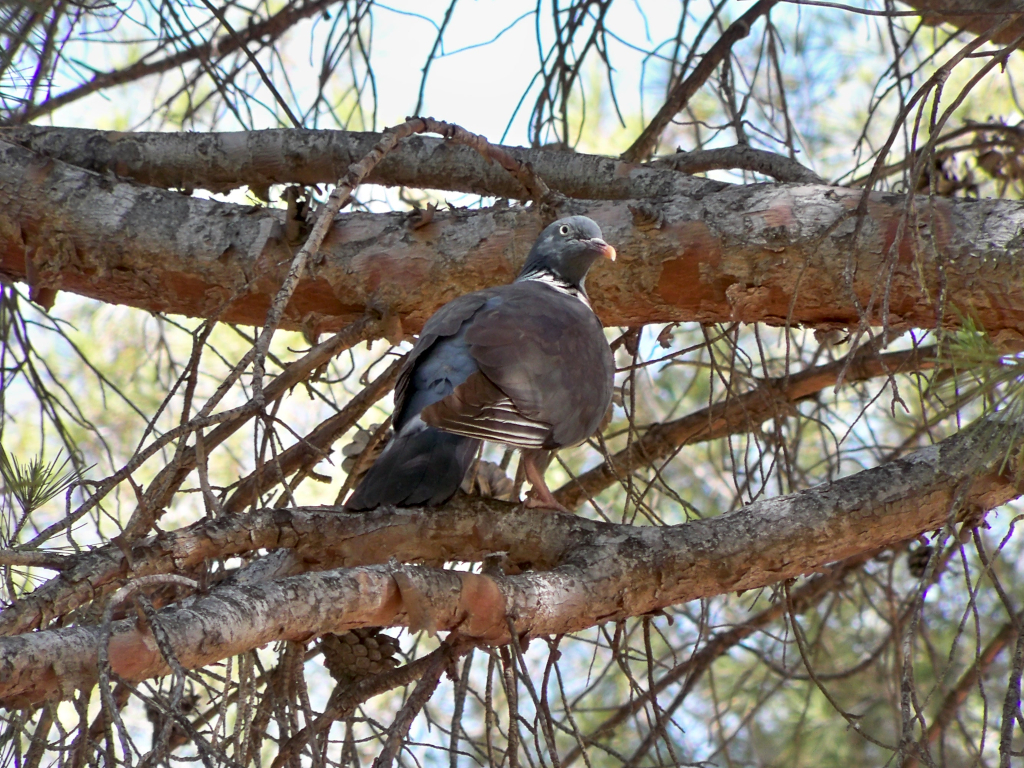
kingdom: Animalia
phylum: Chordata
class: Aves
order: Columbiformes
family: Columbidae
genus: Columba
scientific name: Columba palumbus
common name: Common wood pigeon
